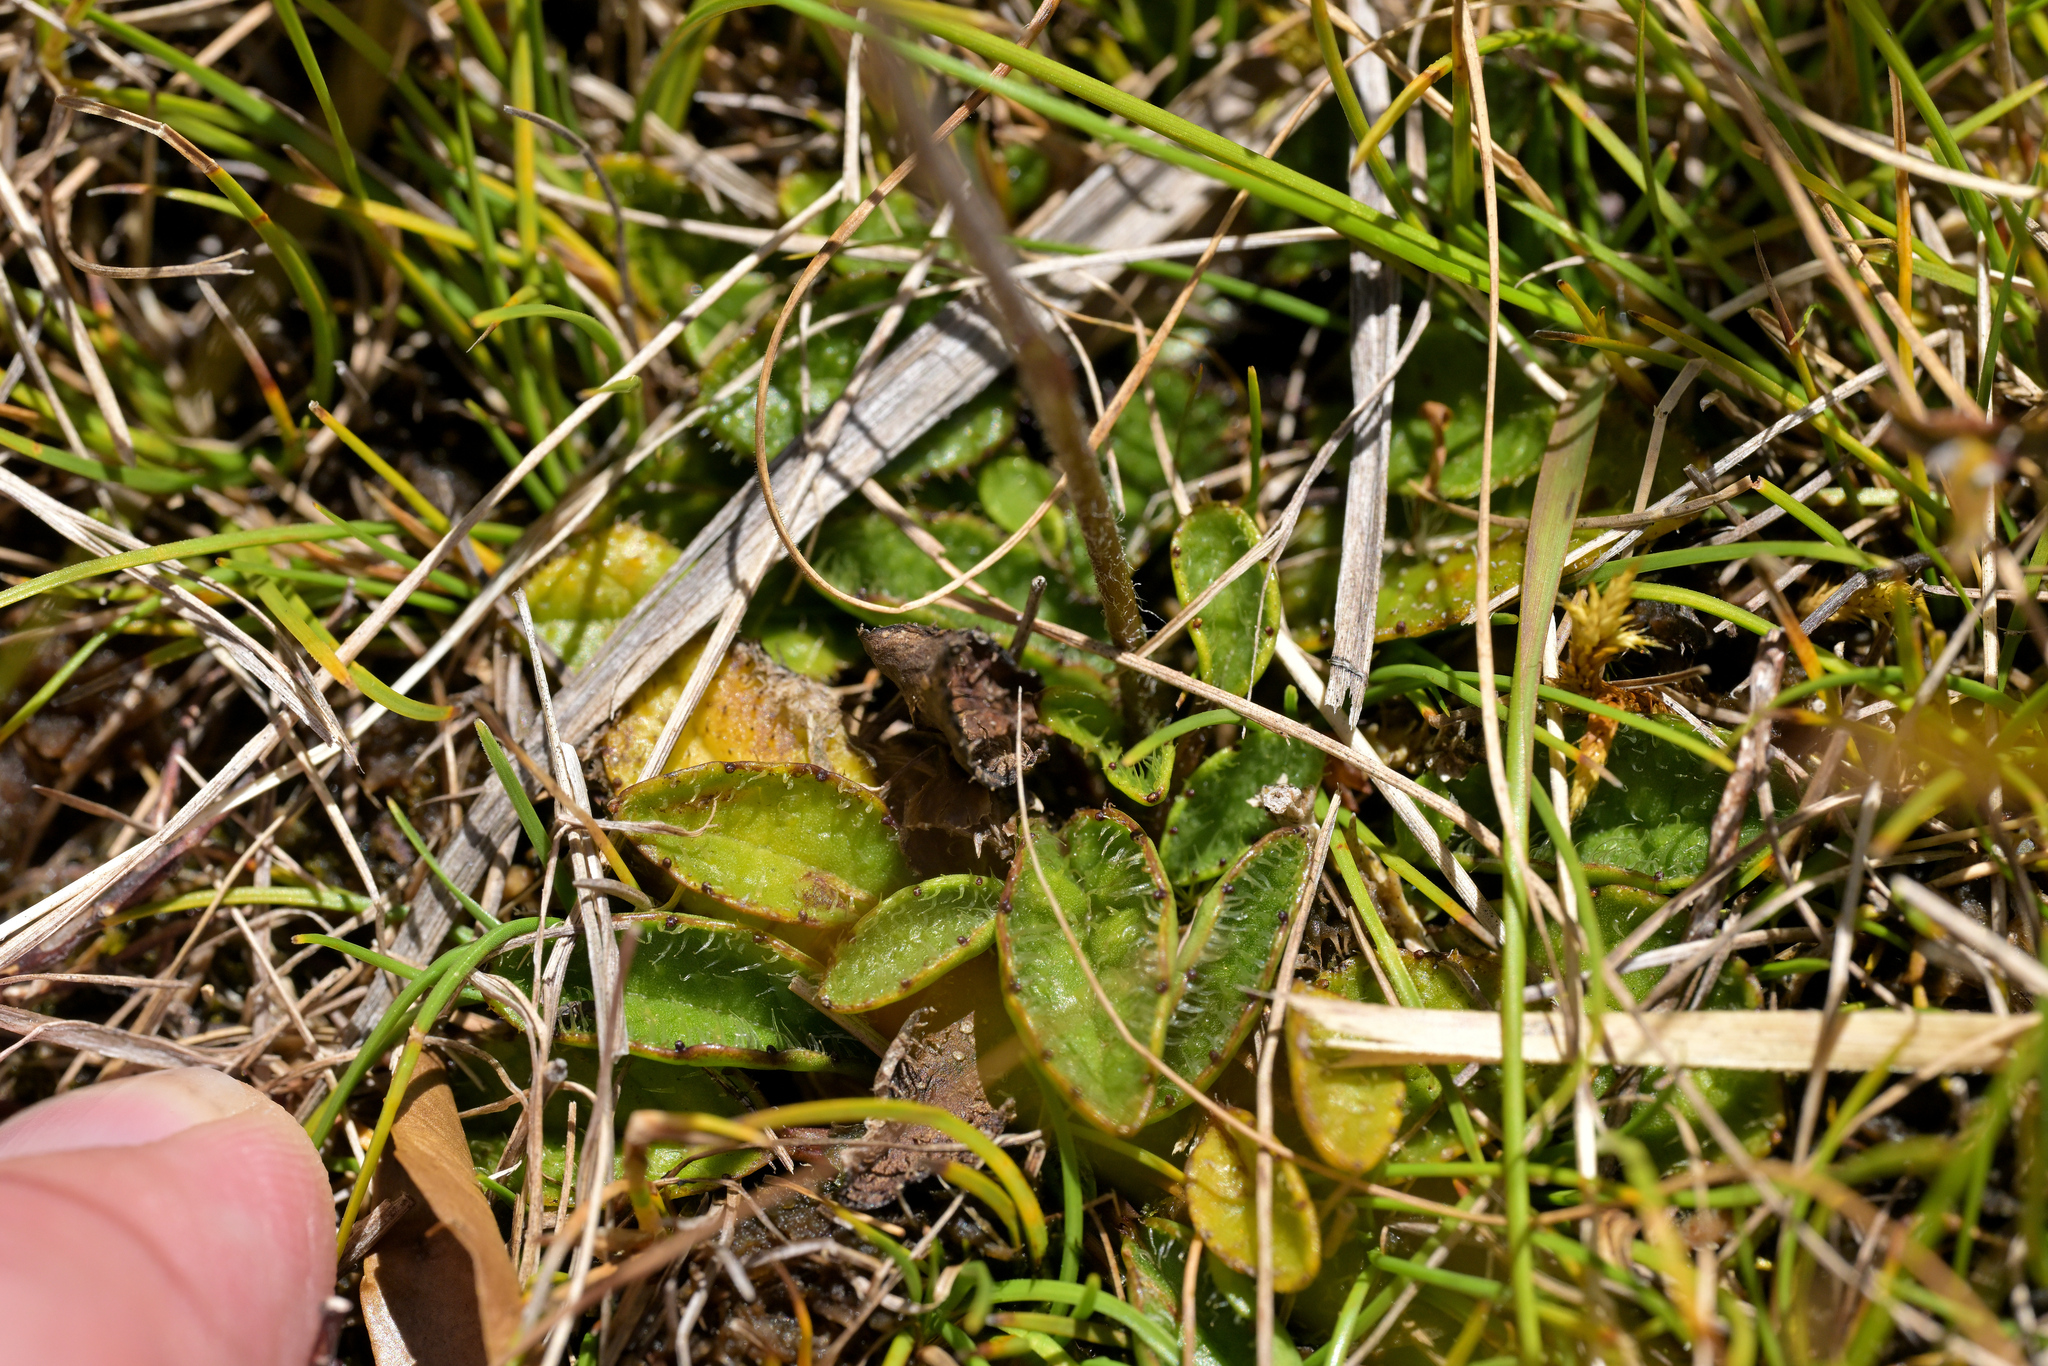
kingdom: Plantae
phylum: Tracheophyta
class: Magnoliopsida
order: Asterales
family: Asteraceae
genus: Brachyglottis
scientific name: Brachyglottis bellidioides
